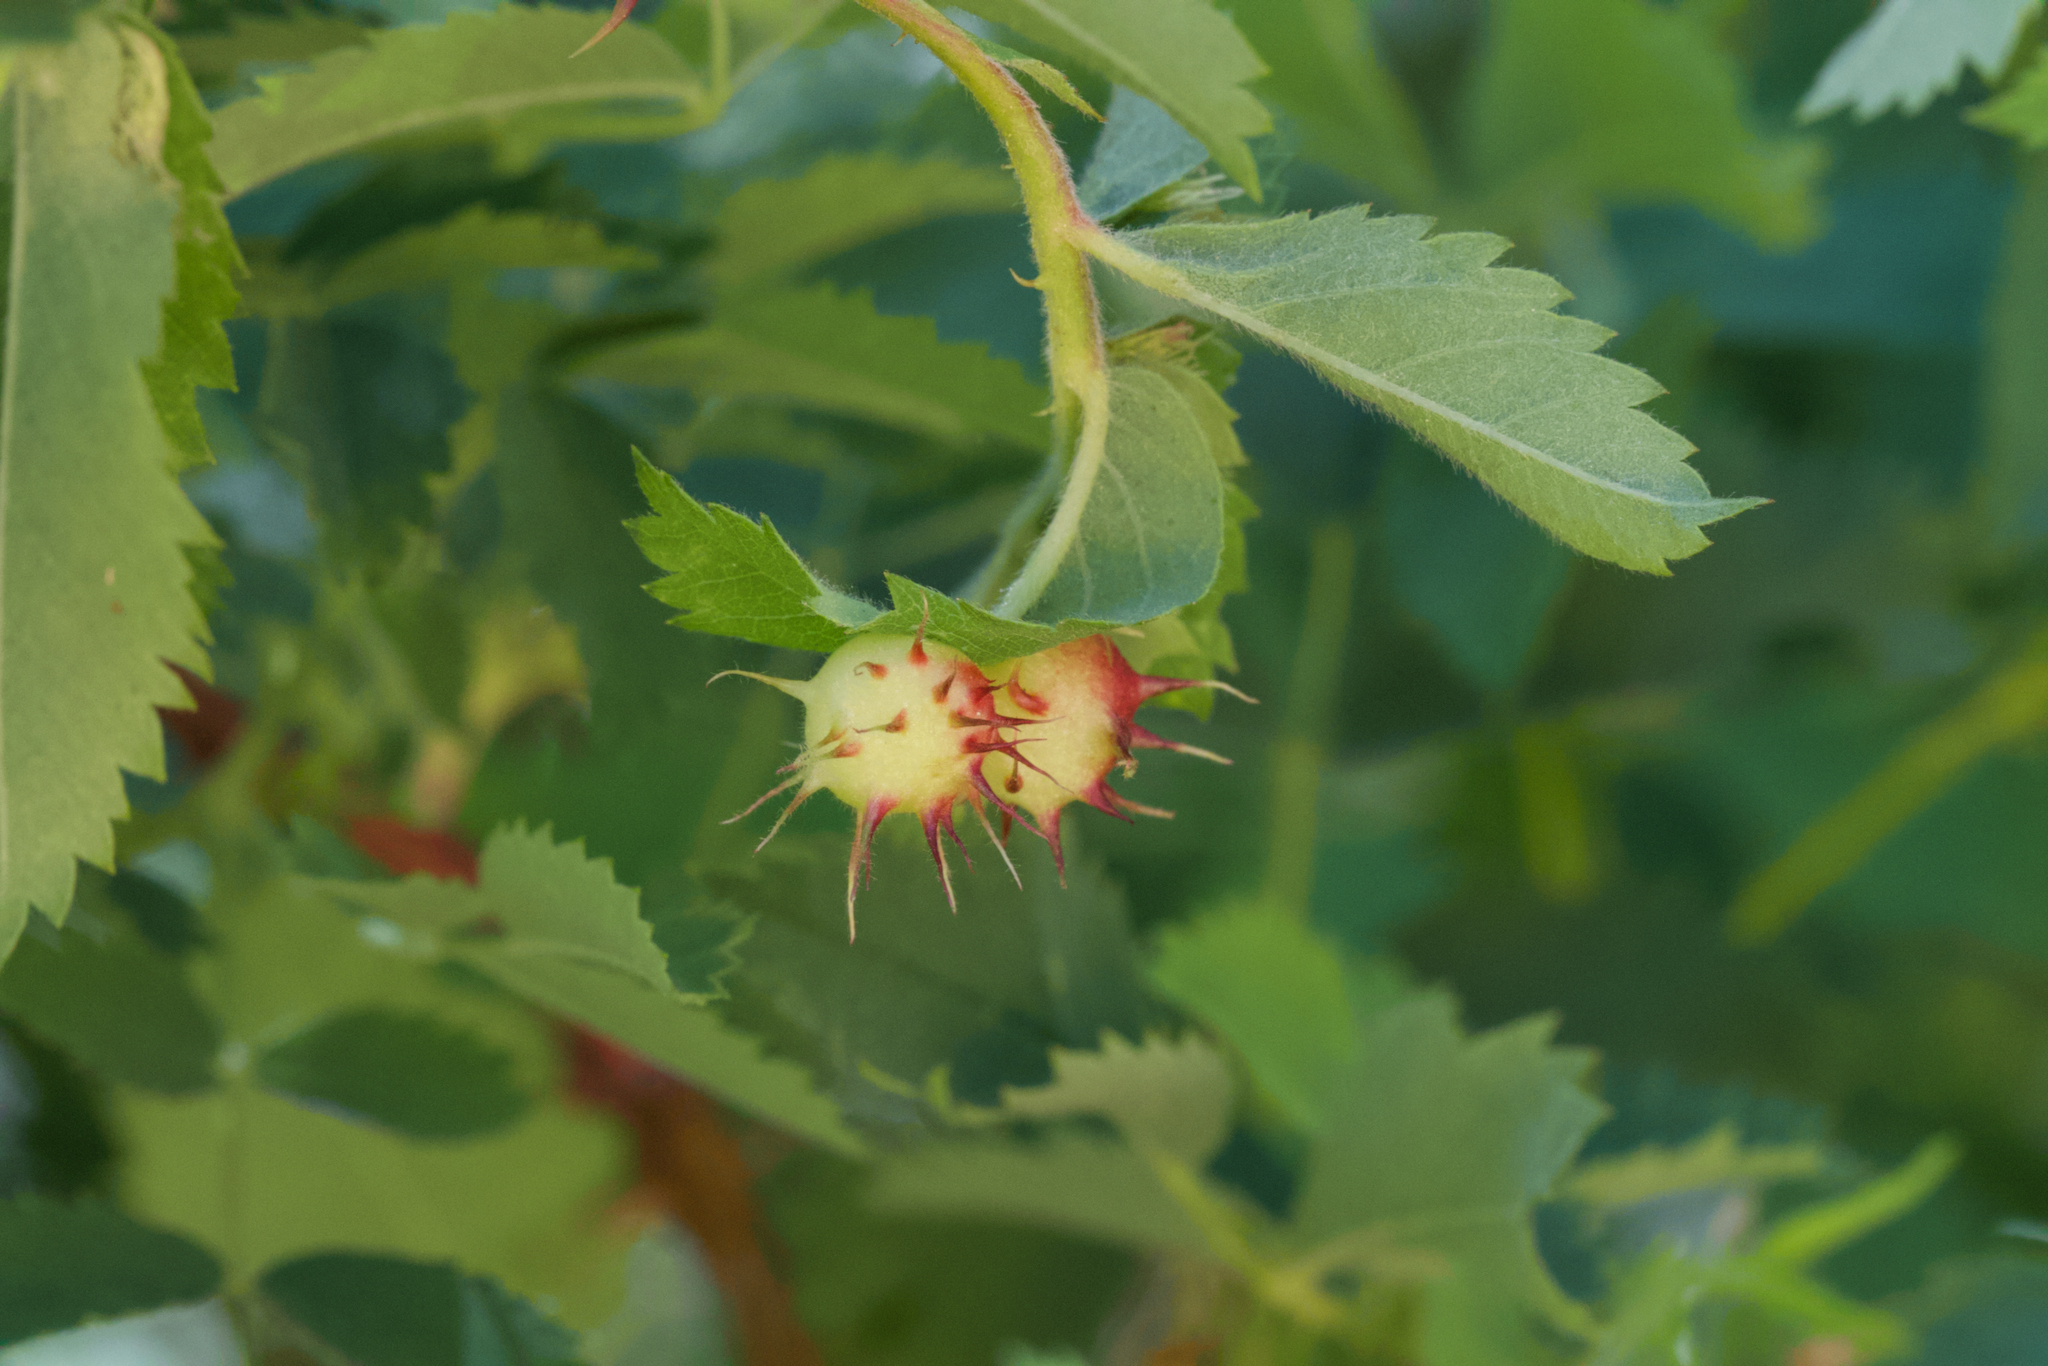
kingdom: Animalia
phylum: Arthropoda
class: Insecta
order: Hymenoptera
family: Cynipidae
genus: Diplolepis
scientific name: Diplolepis polita
